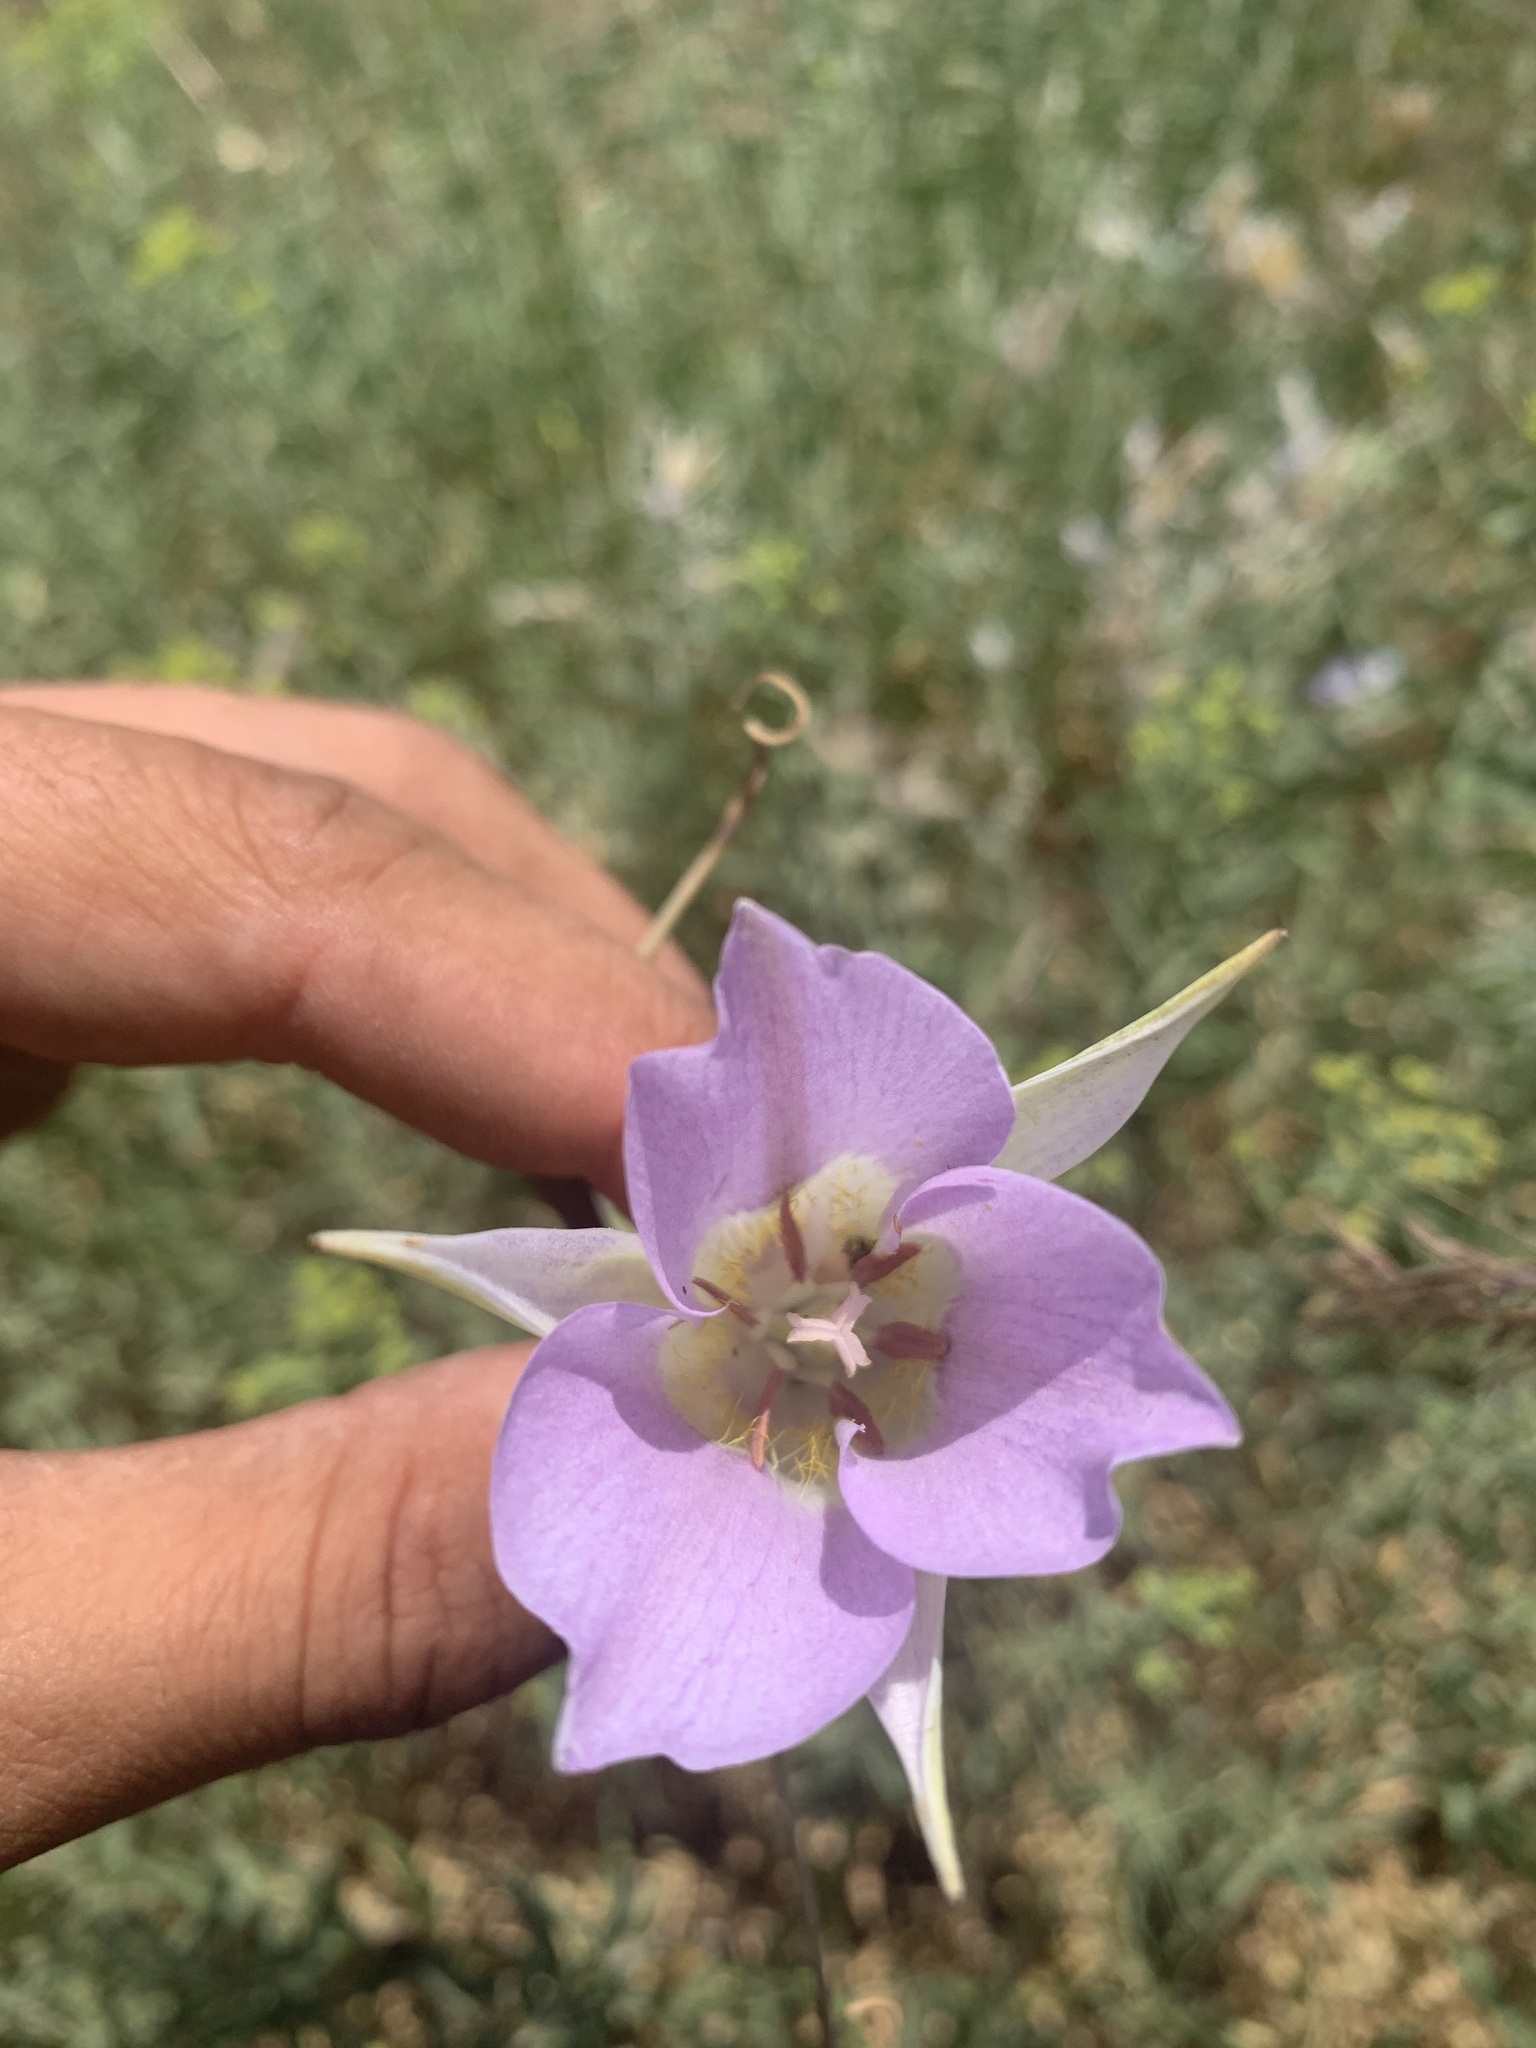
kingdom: Plantae
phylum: Tracheophyta
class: Liliopsida
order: Liliales
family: Liliaceae
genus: Calochortus
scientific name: Calochortus macrocarpus
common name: Green-band mariposa lily
